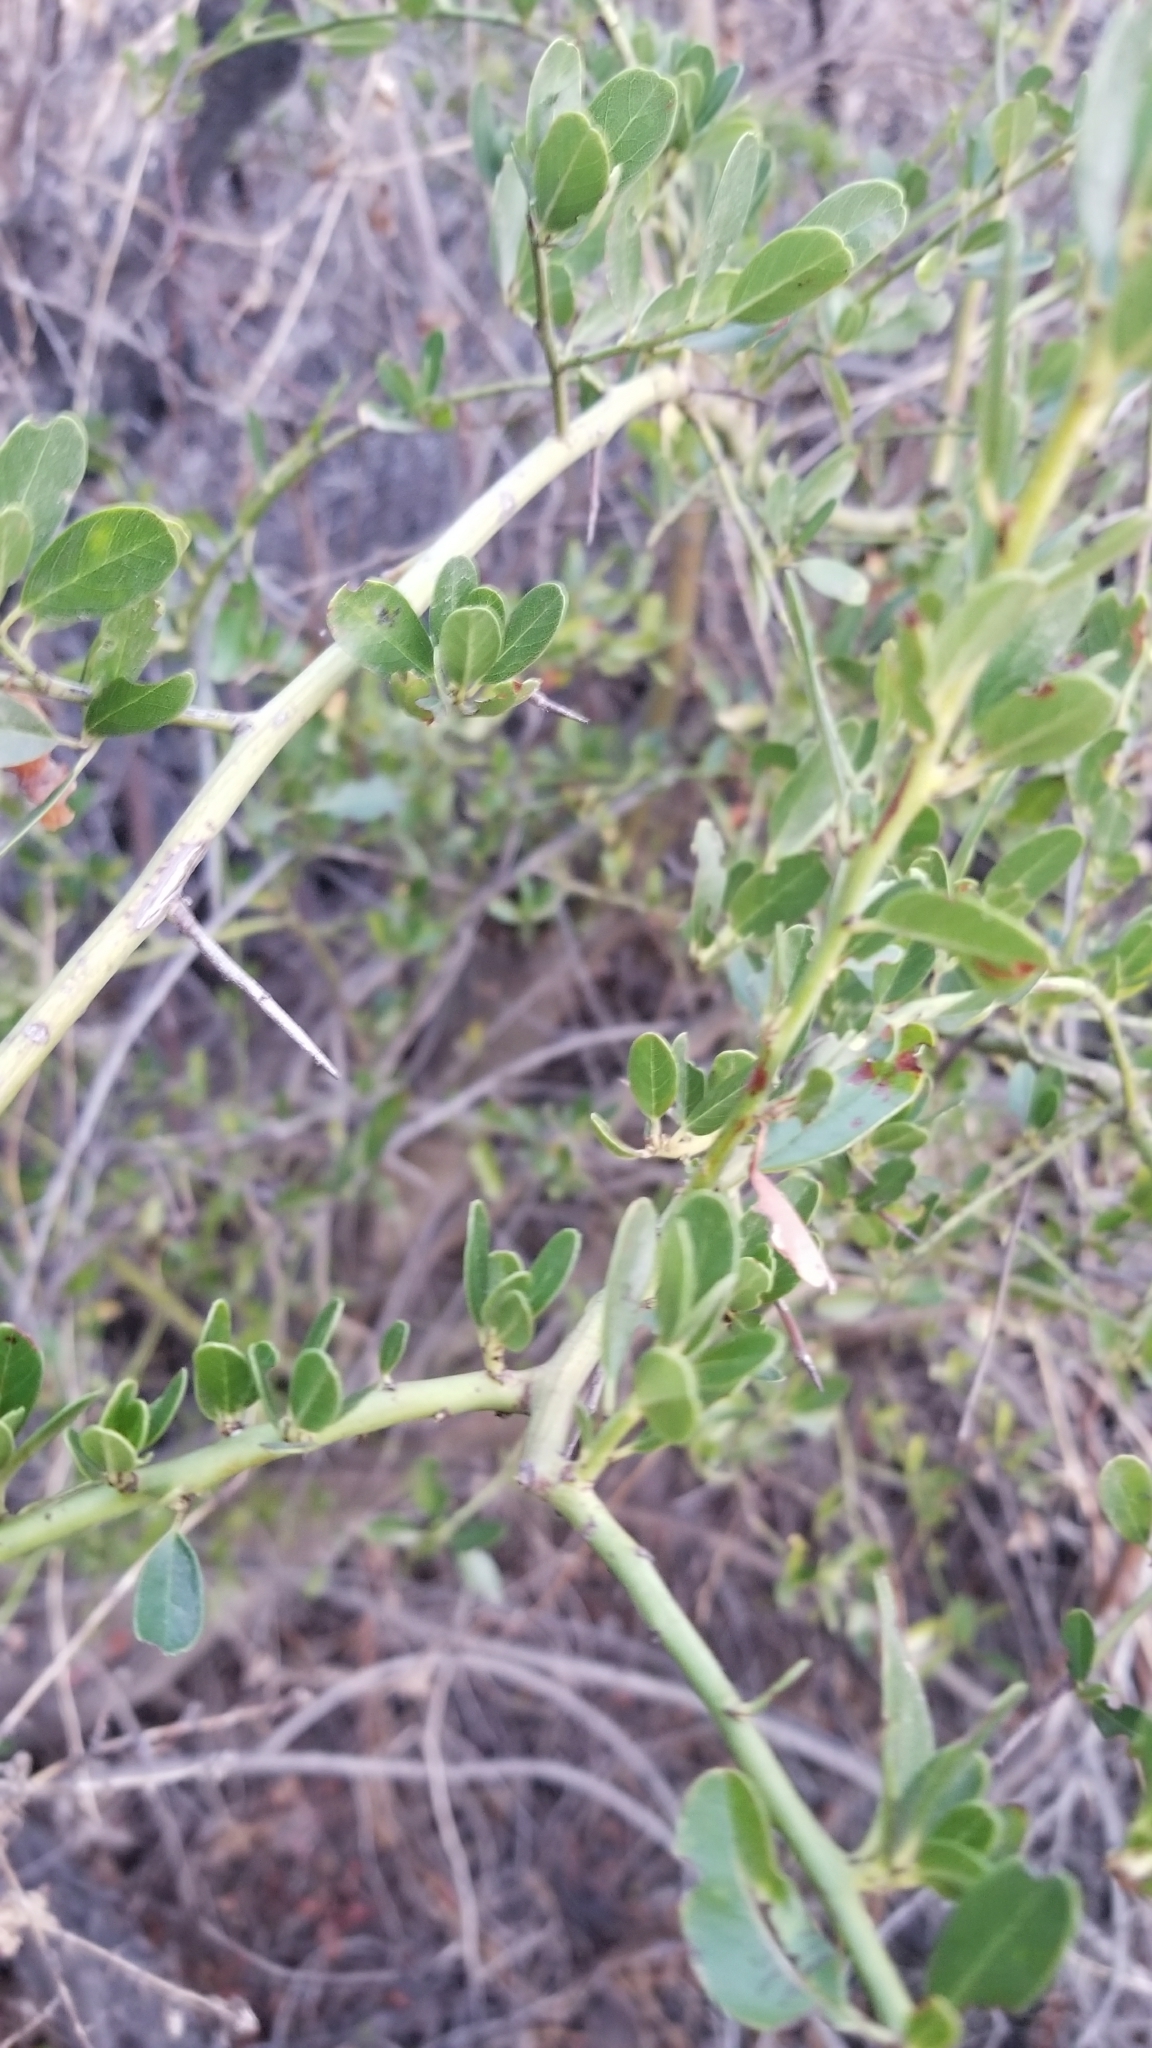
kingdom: Plantae
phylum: Tracheophyta
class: Magnoliopsida
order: Rosales
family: Rhamnaceae
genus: Ceanothus
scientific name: Ceanothus spinosus
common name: Greenbark whitethorn
